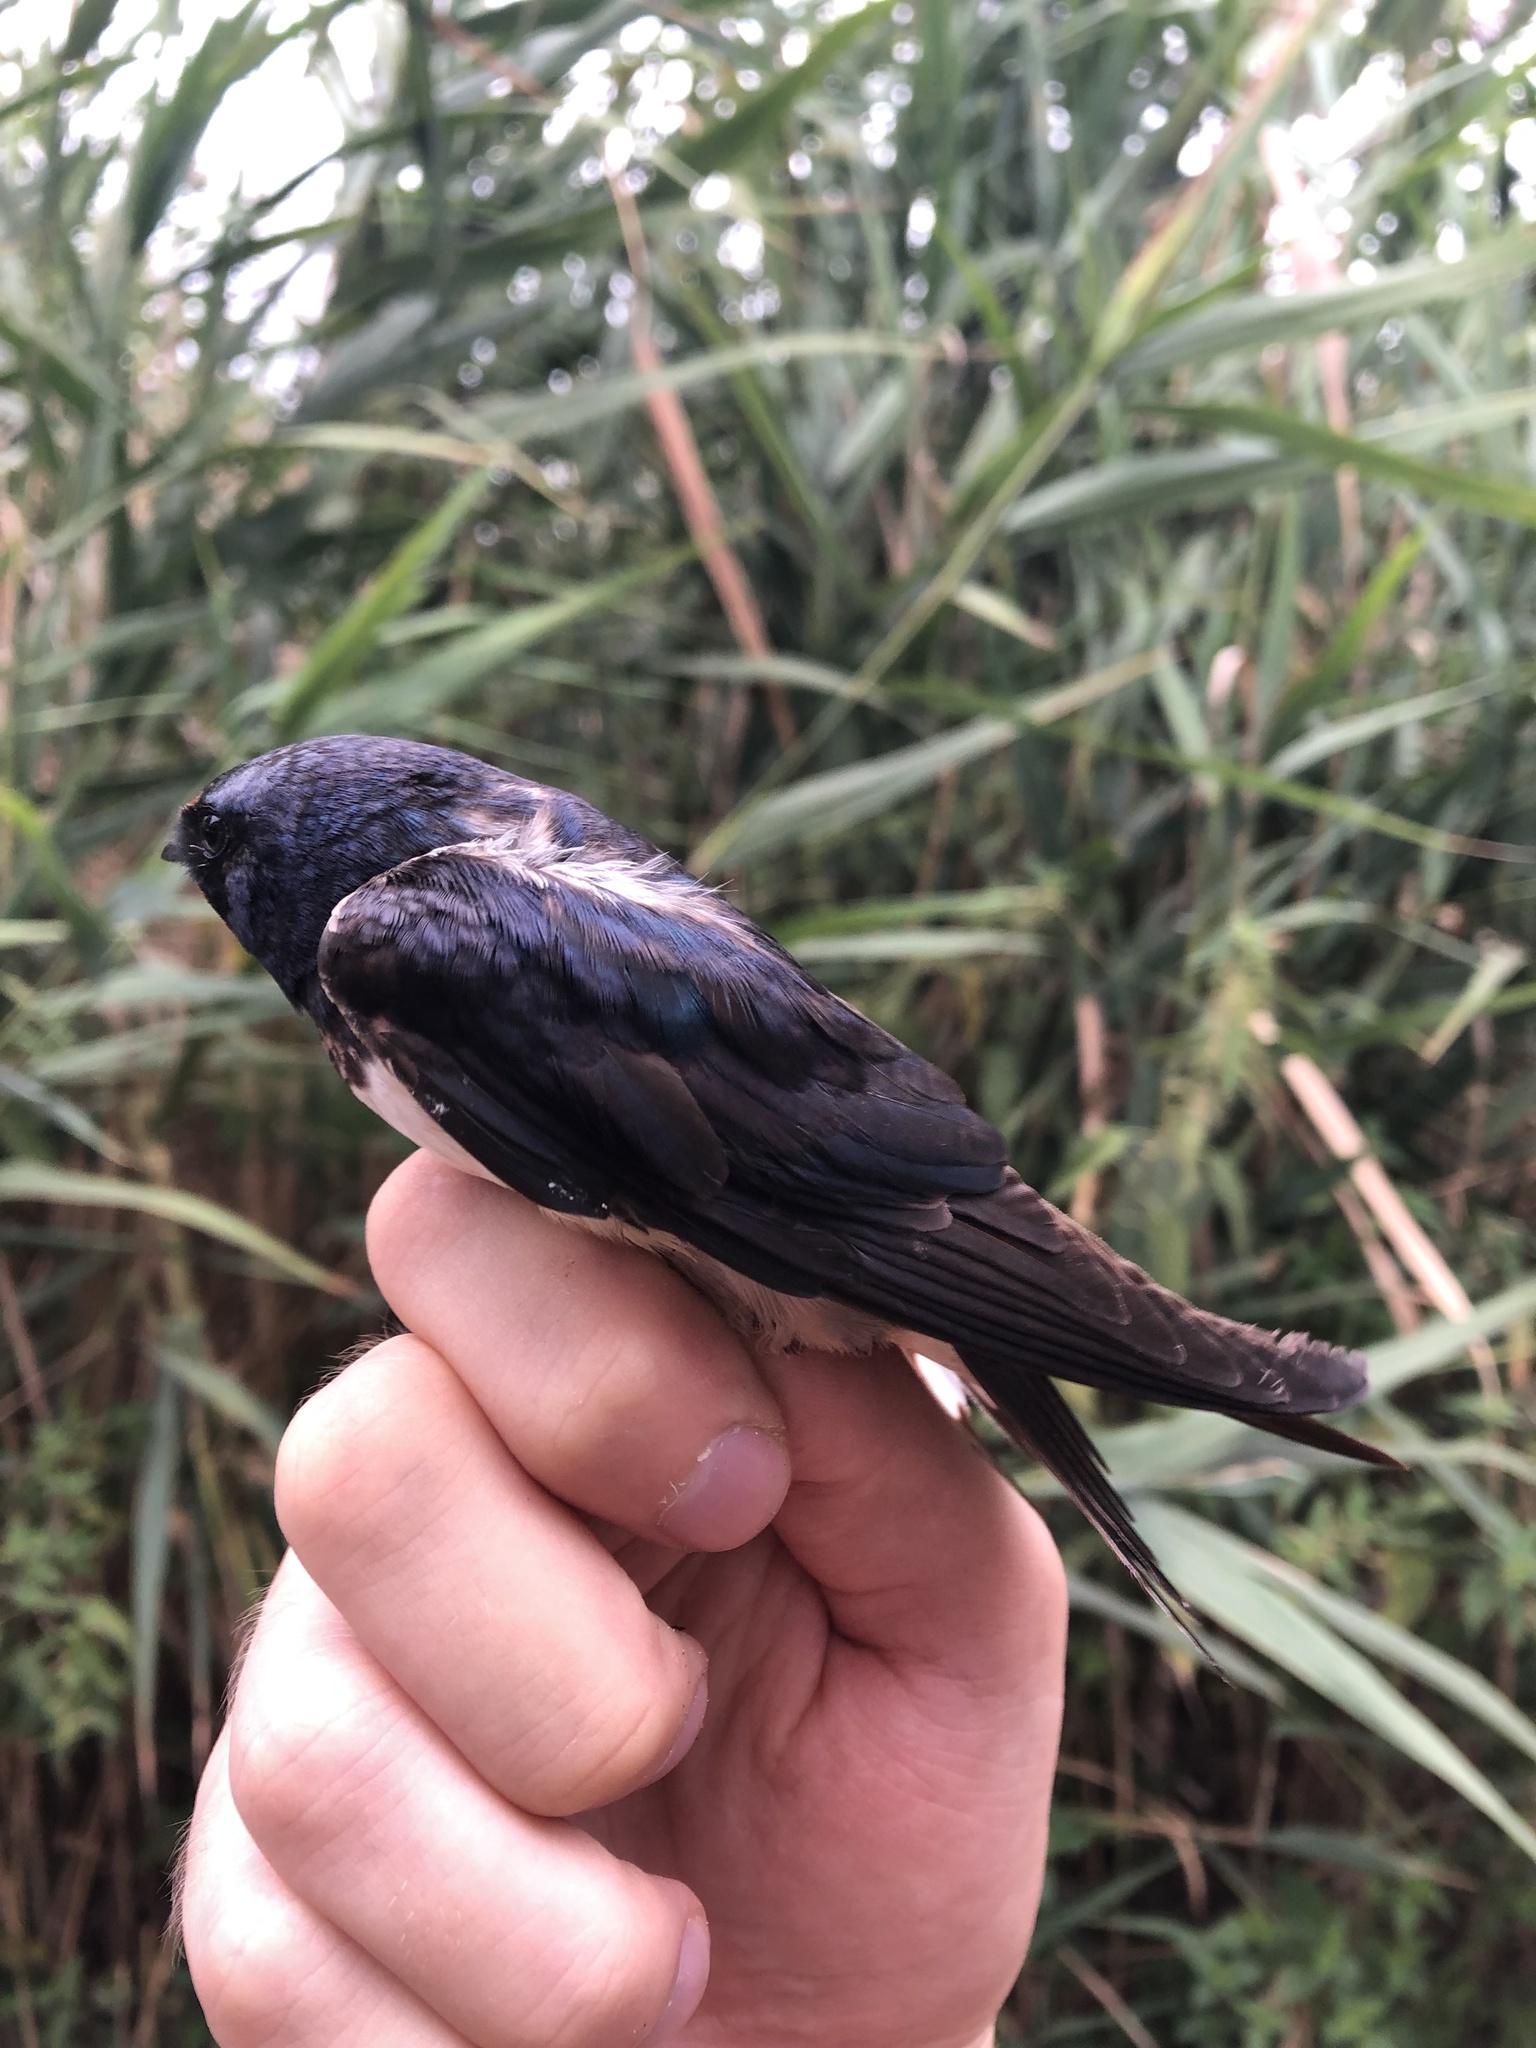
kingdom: Animalia
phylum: Chordata
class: Aves
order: Passeriformes
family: Hirundinidae
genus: Hirundo
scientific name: Hirundo rustica
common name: Barn swallow
